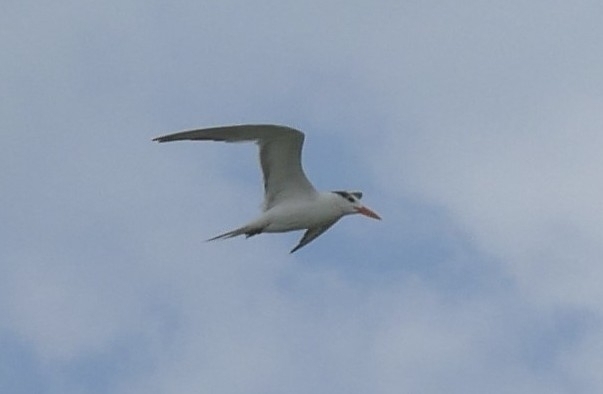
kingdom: Animalia
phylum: Chordata
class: Aves
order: Charadriiformes
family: Laridae
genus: Thalasseus
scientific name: Thalasseus maximus
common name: Royal tern
